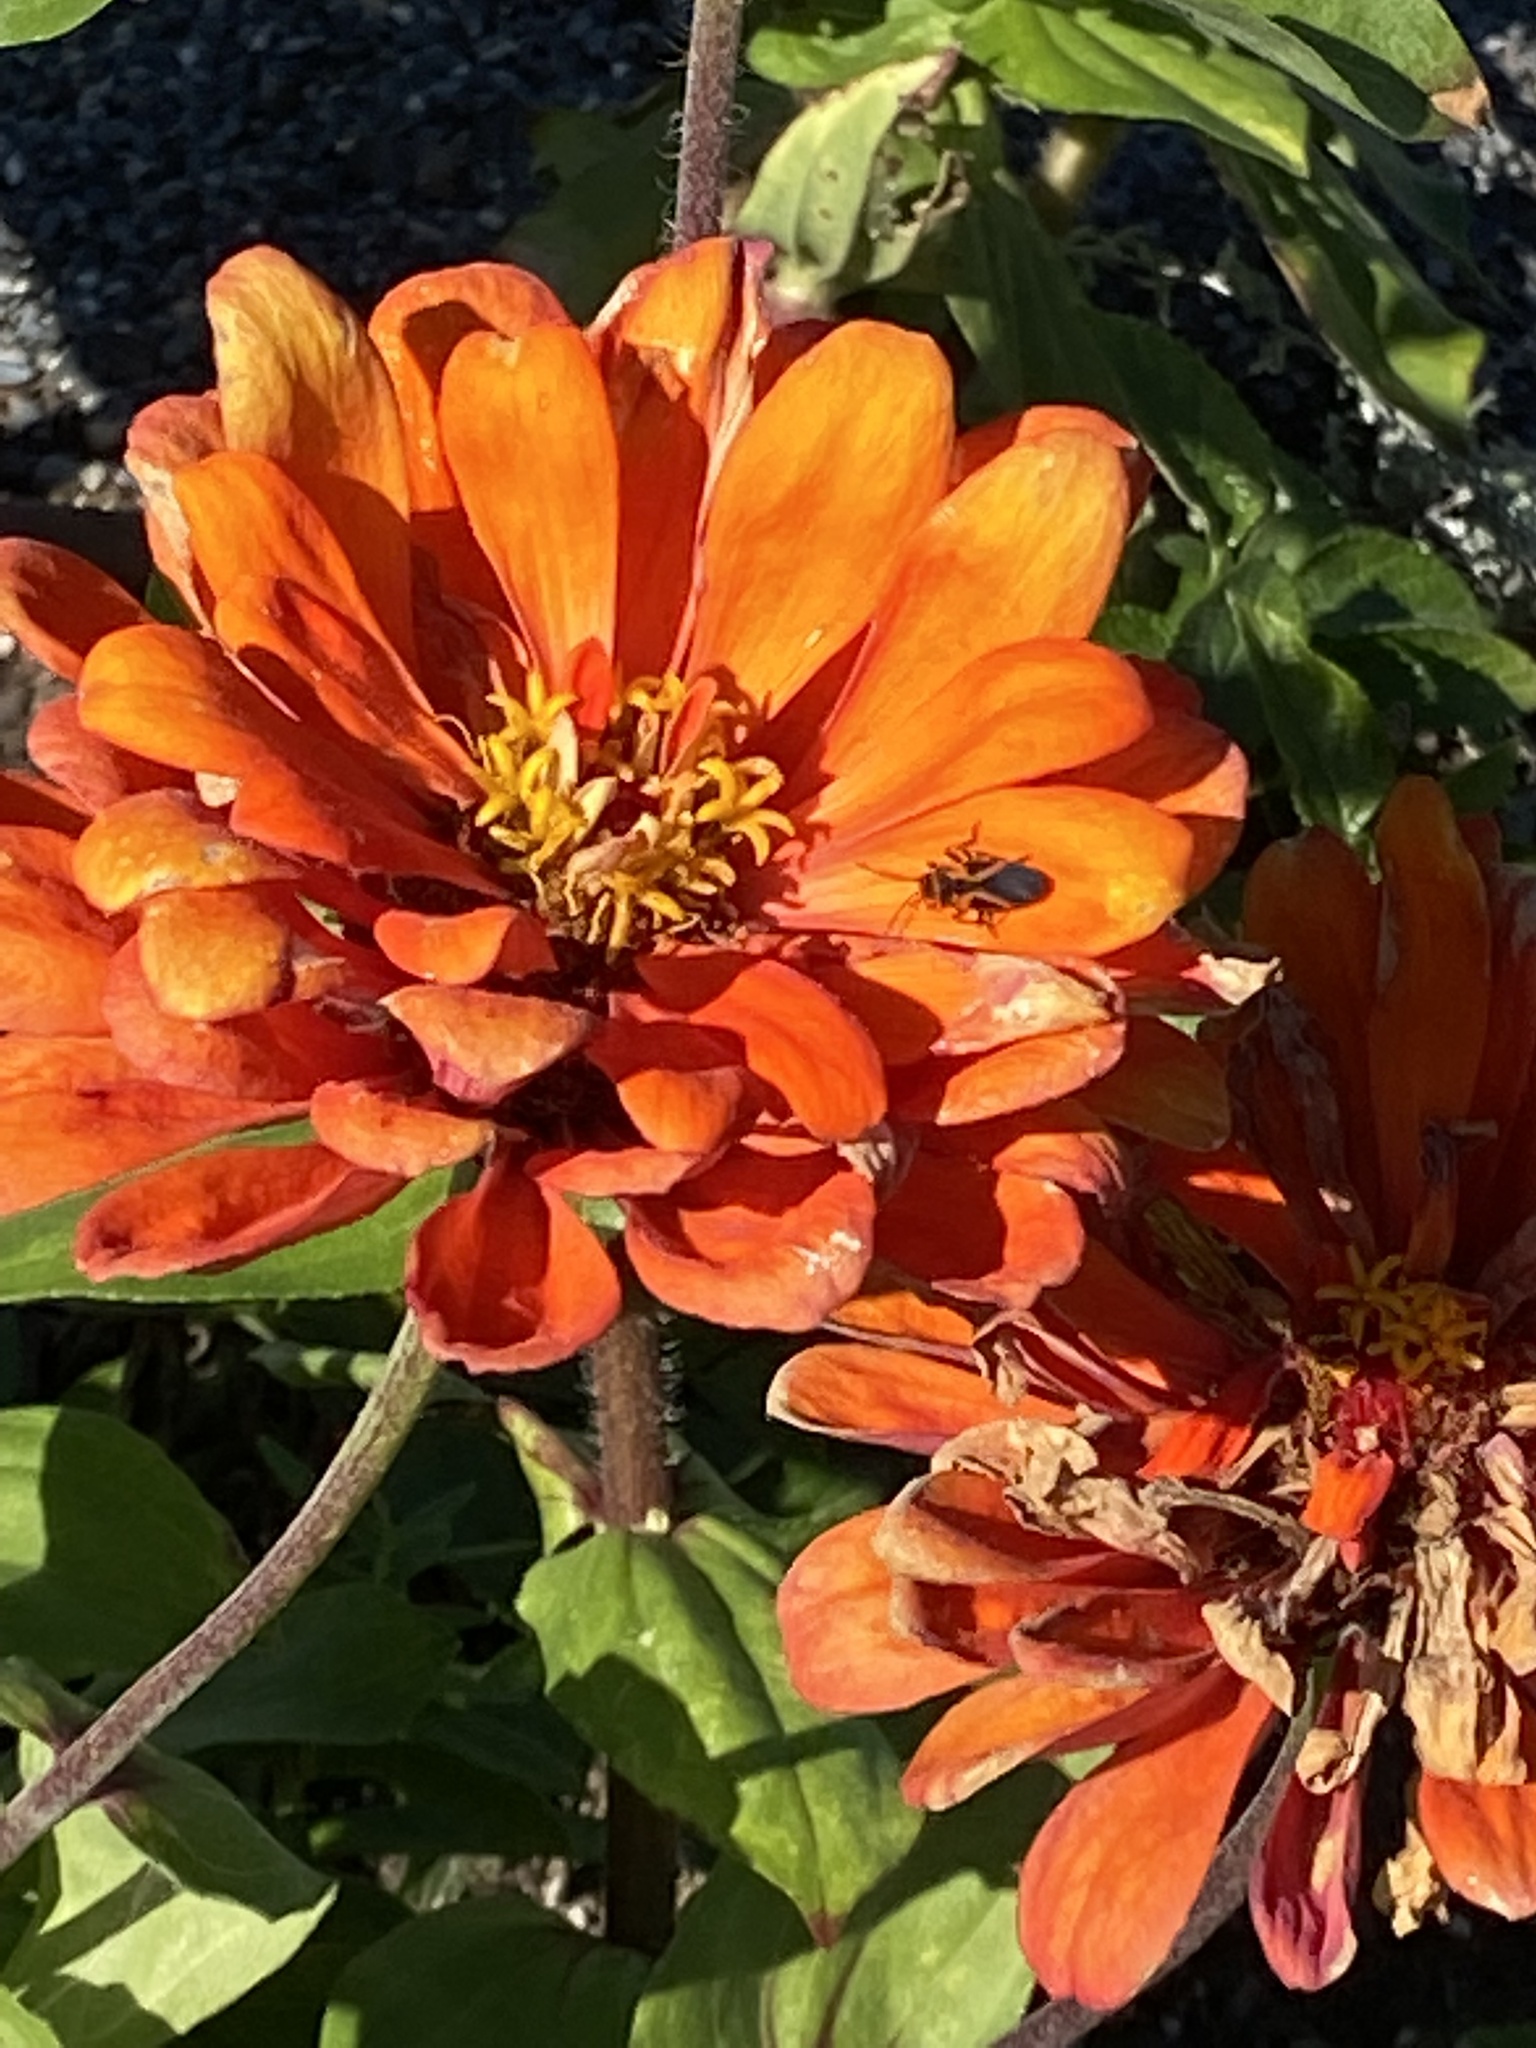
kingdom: Animalia
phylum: Arthropoda
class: Insecta
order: Hemiptera
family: Lygaeidae
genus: Lygaeus
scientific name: Lygaeus turcicus
